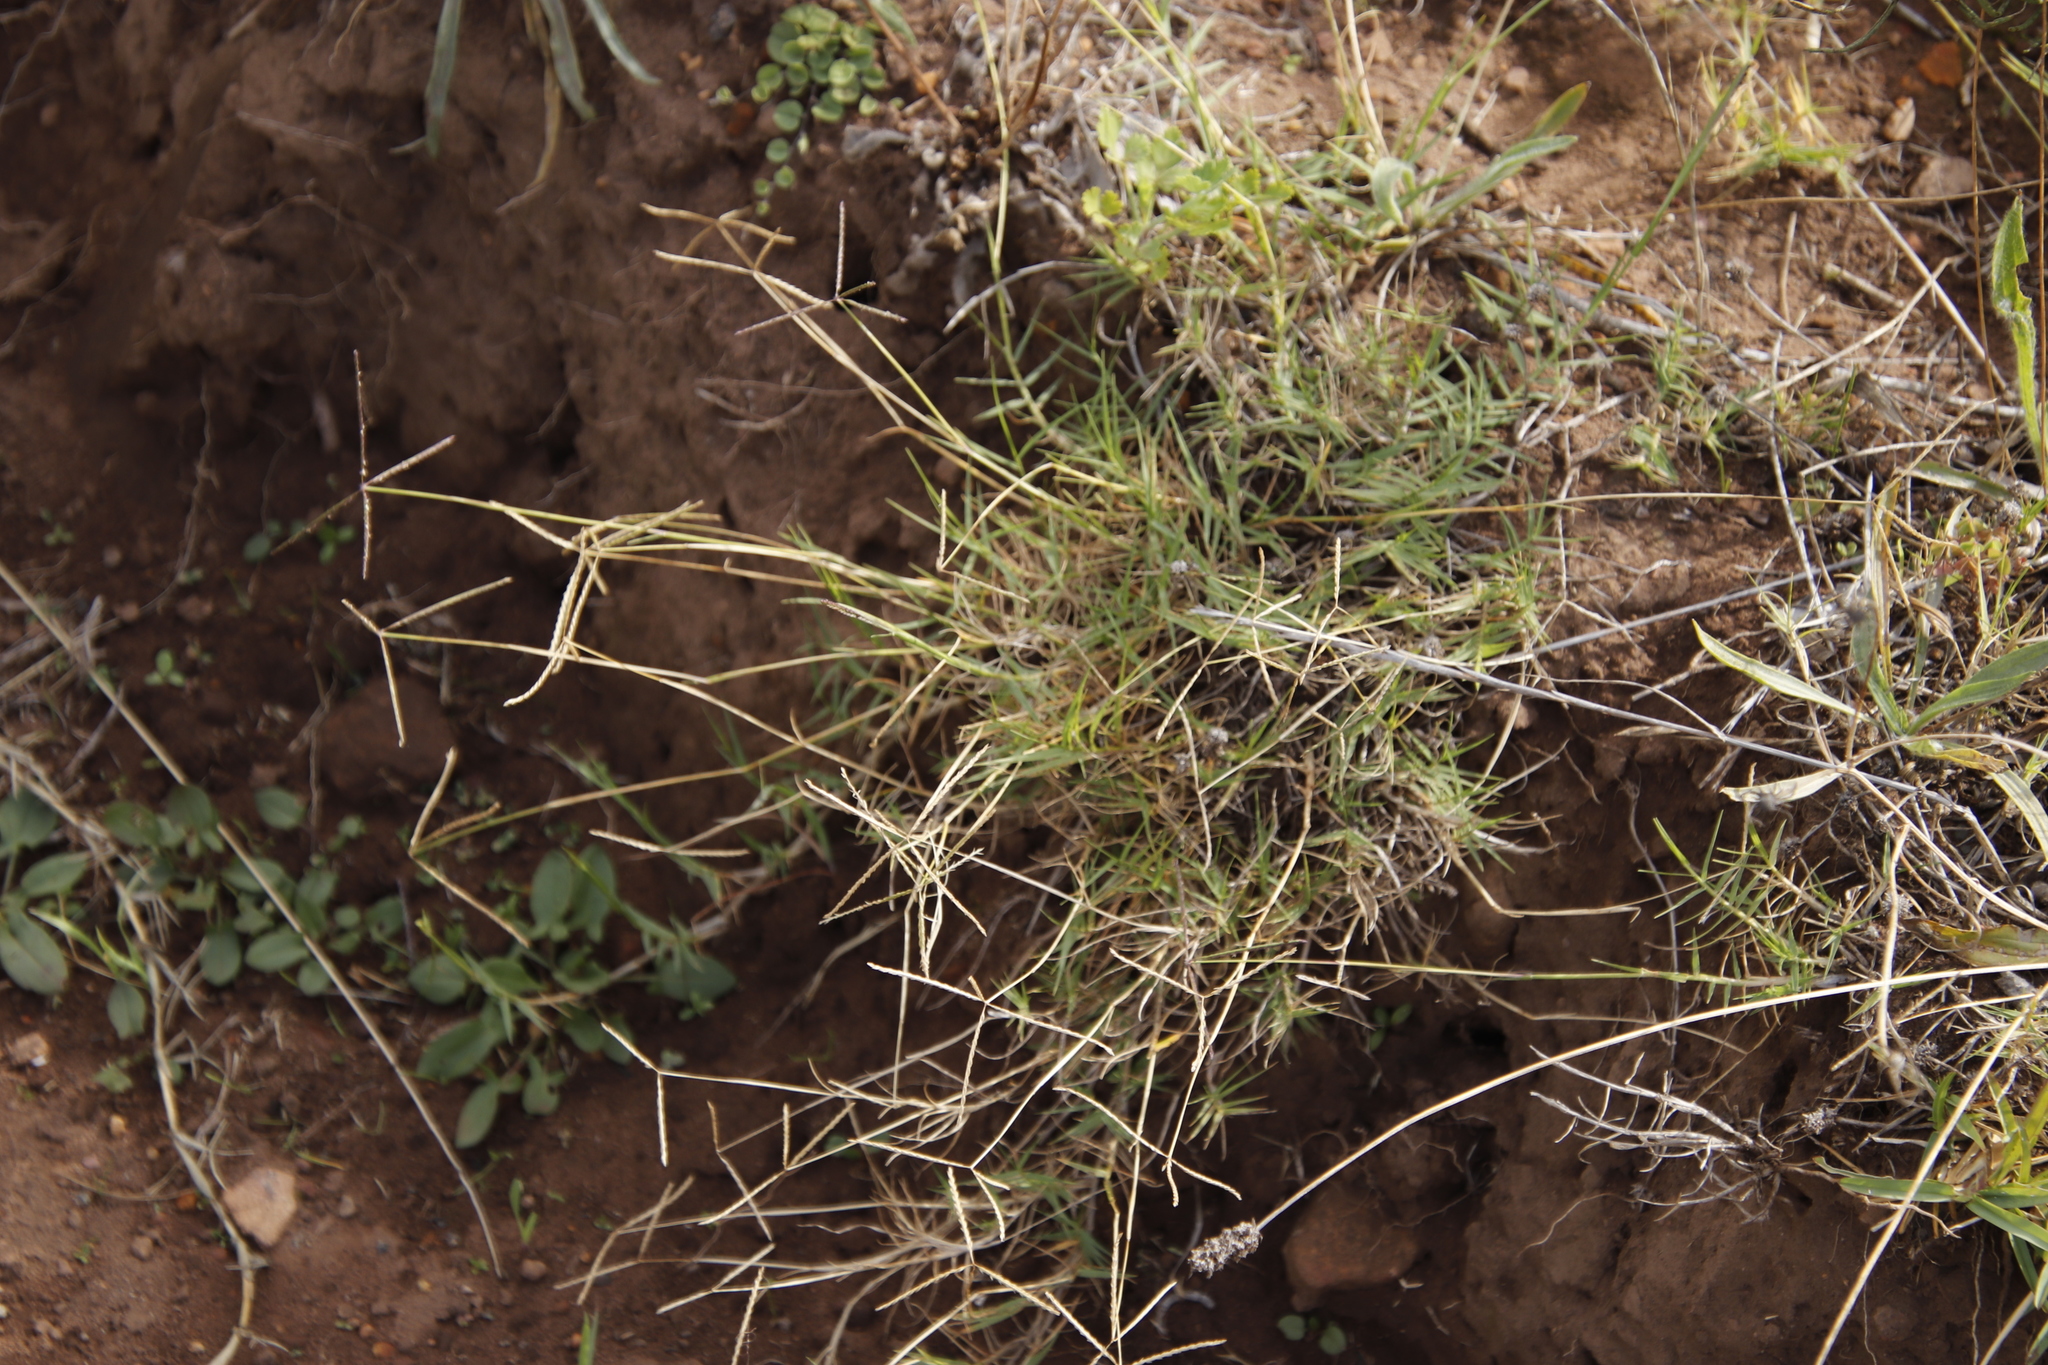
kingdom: Plantae
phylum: Tracheophyta
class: Liliopsida
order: Poales
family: Poaceae
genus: Cynodon
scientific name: Cynodon dactylon
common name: Bermuda grass
